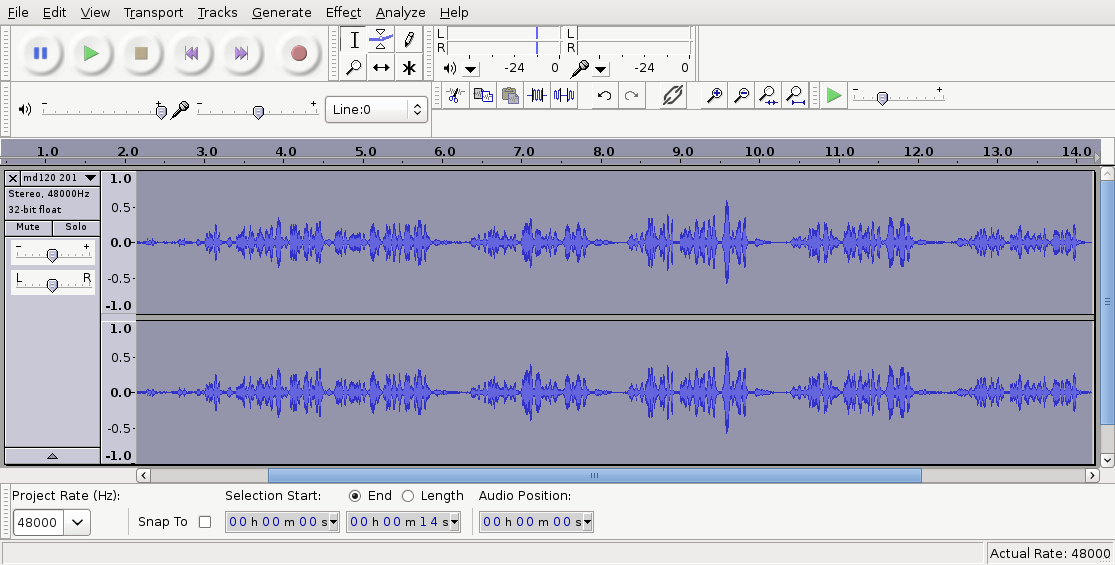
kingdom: Animalia
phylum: Chordata
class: Aves
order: Passeriformes
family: Acanthizidae
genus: Gerygone
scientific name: Gerygone igata
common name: Grey gerygone
